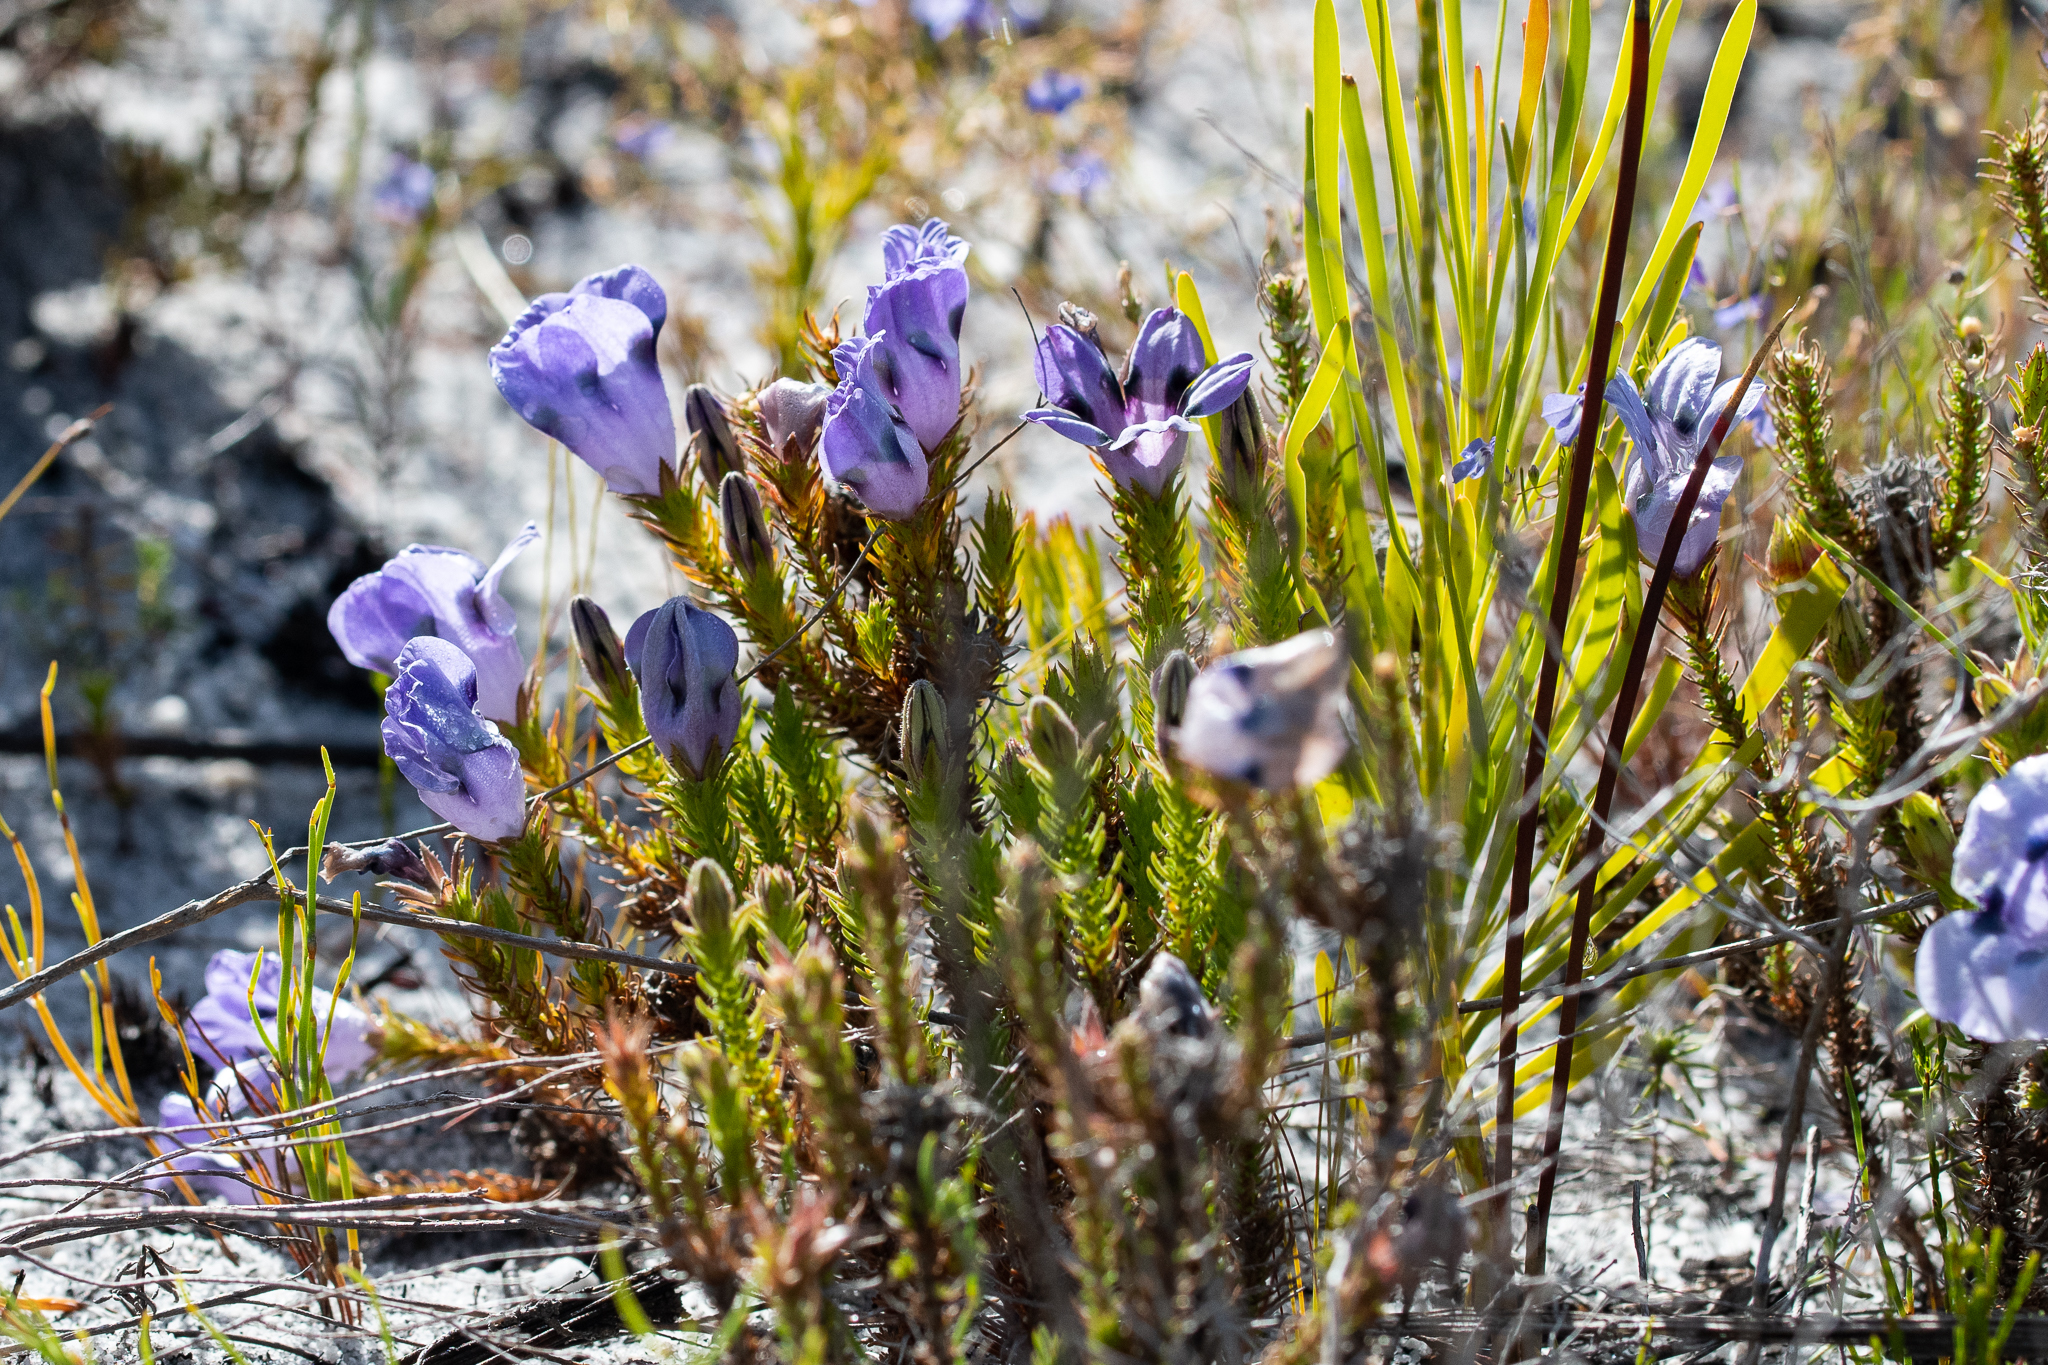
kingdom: Plantae
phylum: Tracheophyta
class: Magnoliopsida
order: Asterales
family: Campanulaceae
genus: Roella
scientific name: Roella maculata
